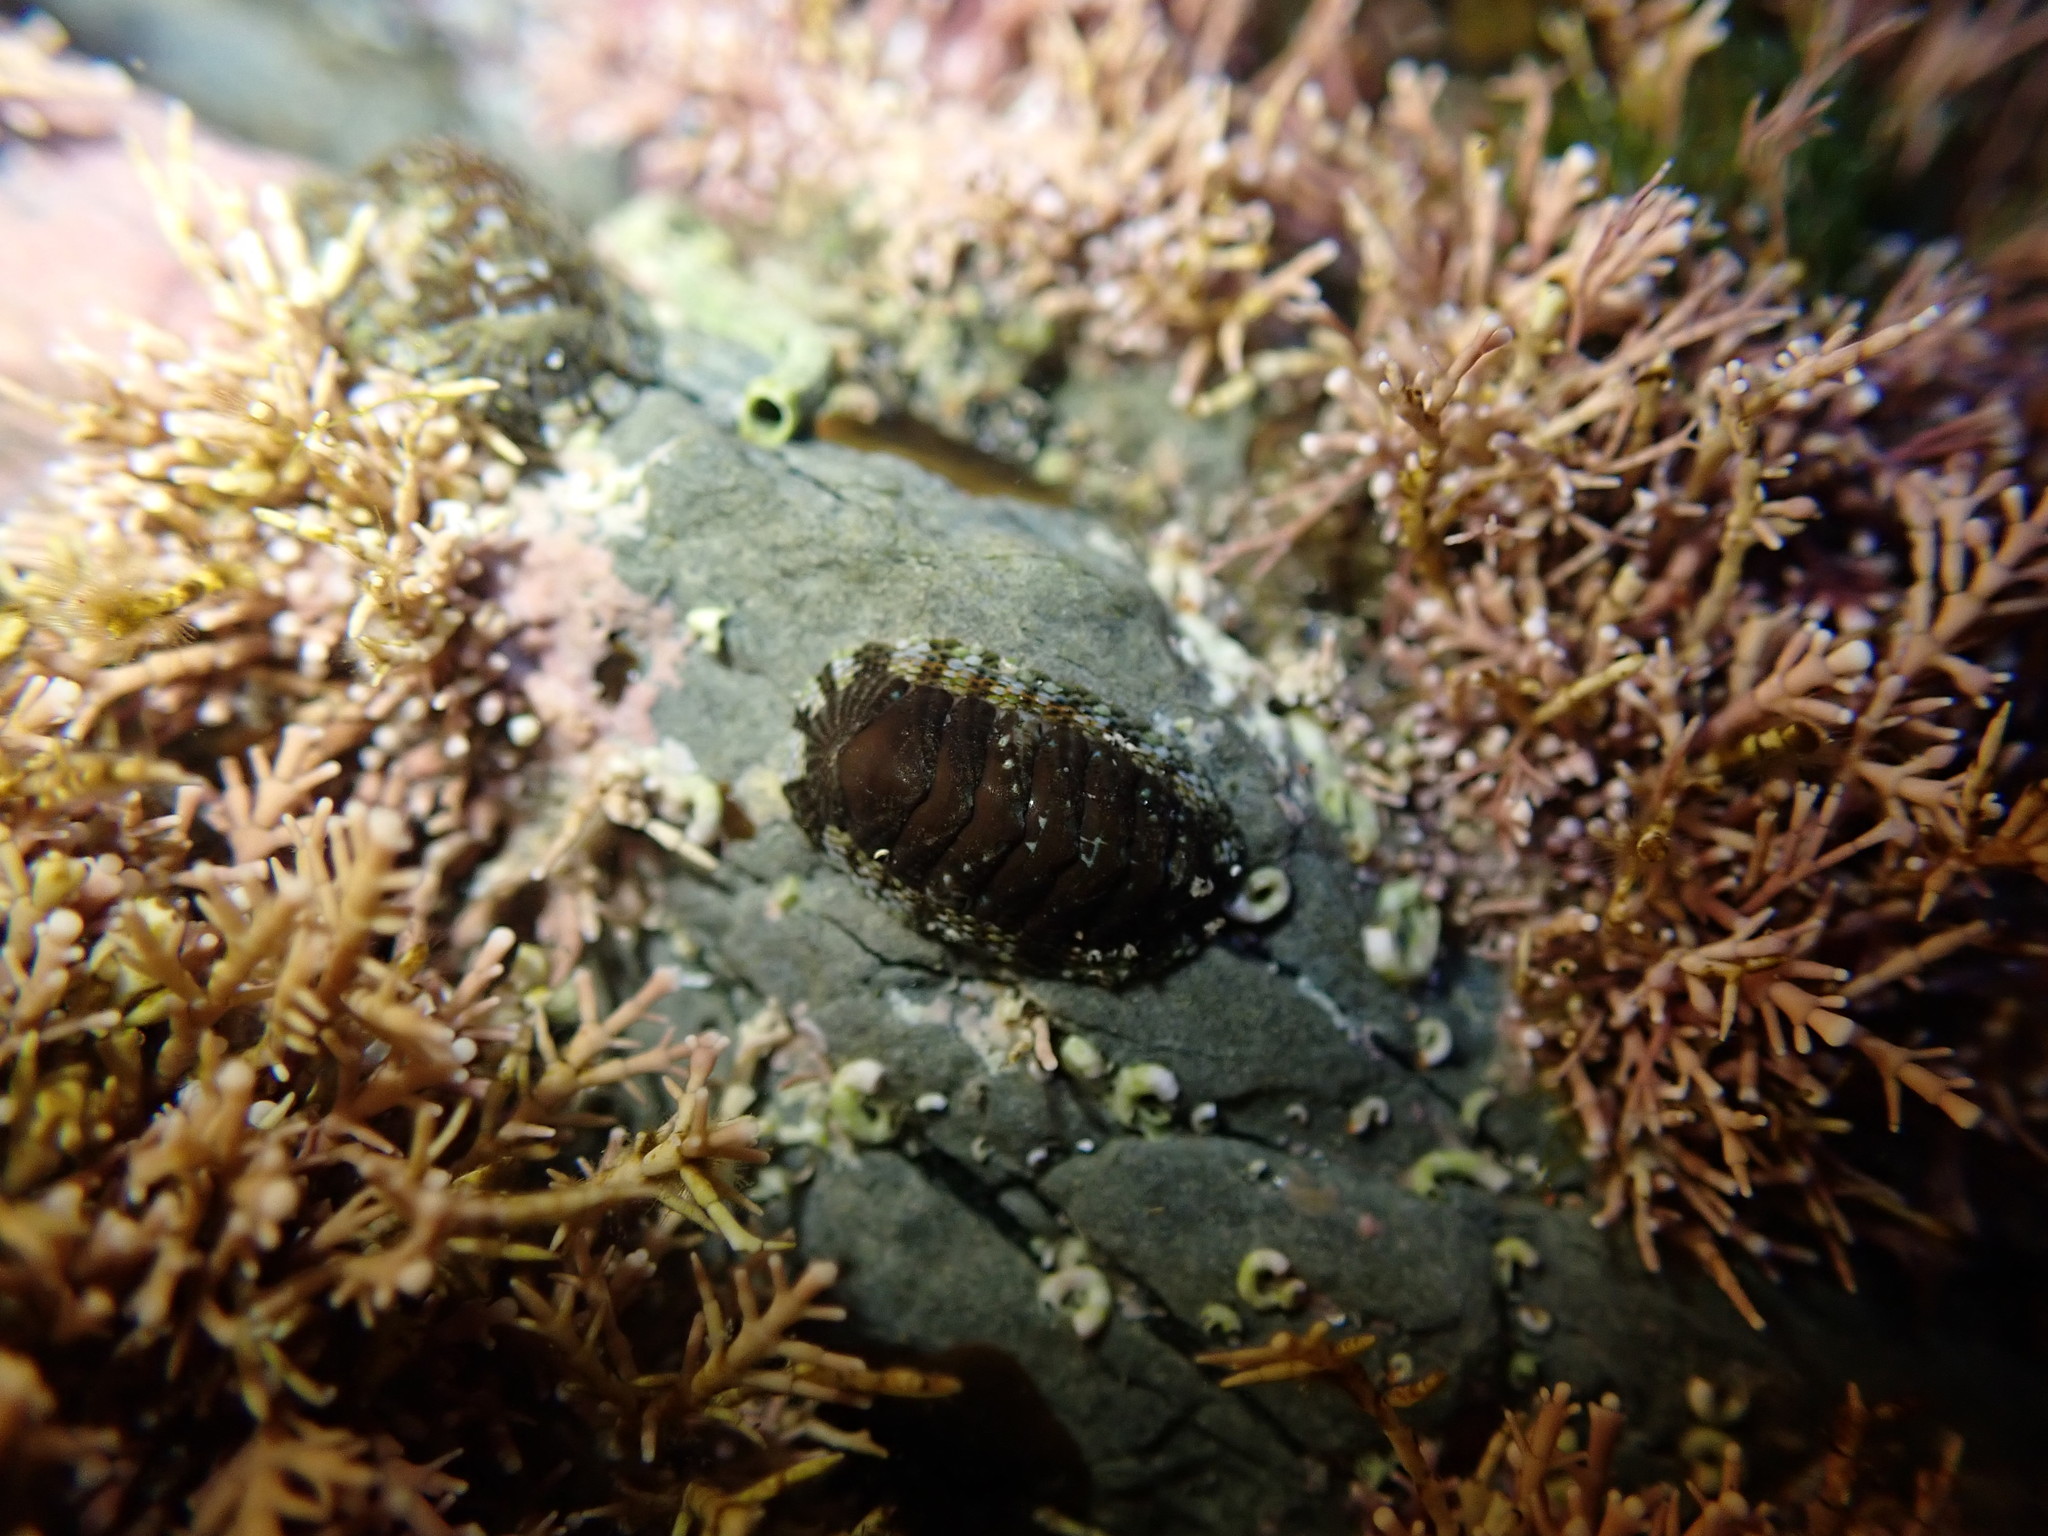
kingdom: Animalia
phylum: Mollusca
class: Polyplacophora
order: Chitonida
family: Chitonidae
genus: Sypharochiton
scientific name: Sypharochiton sinclairi
